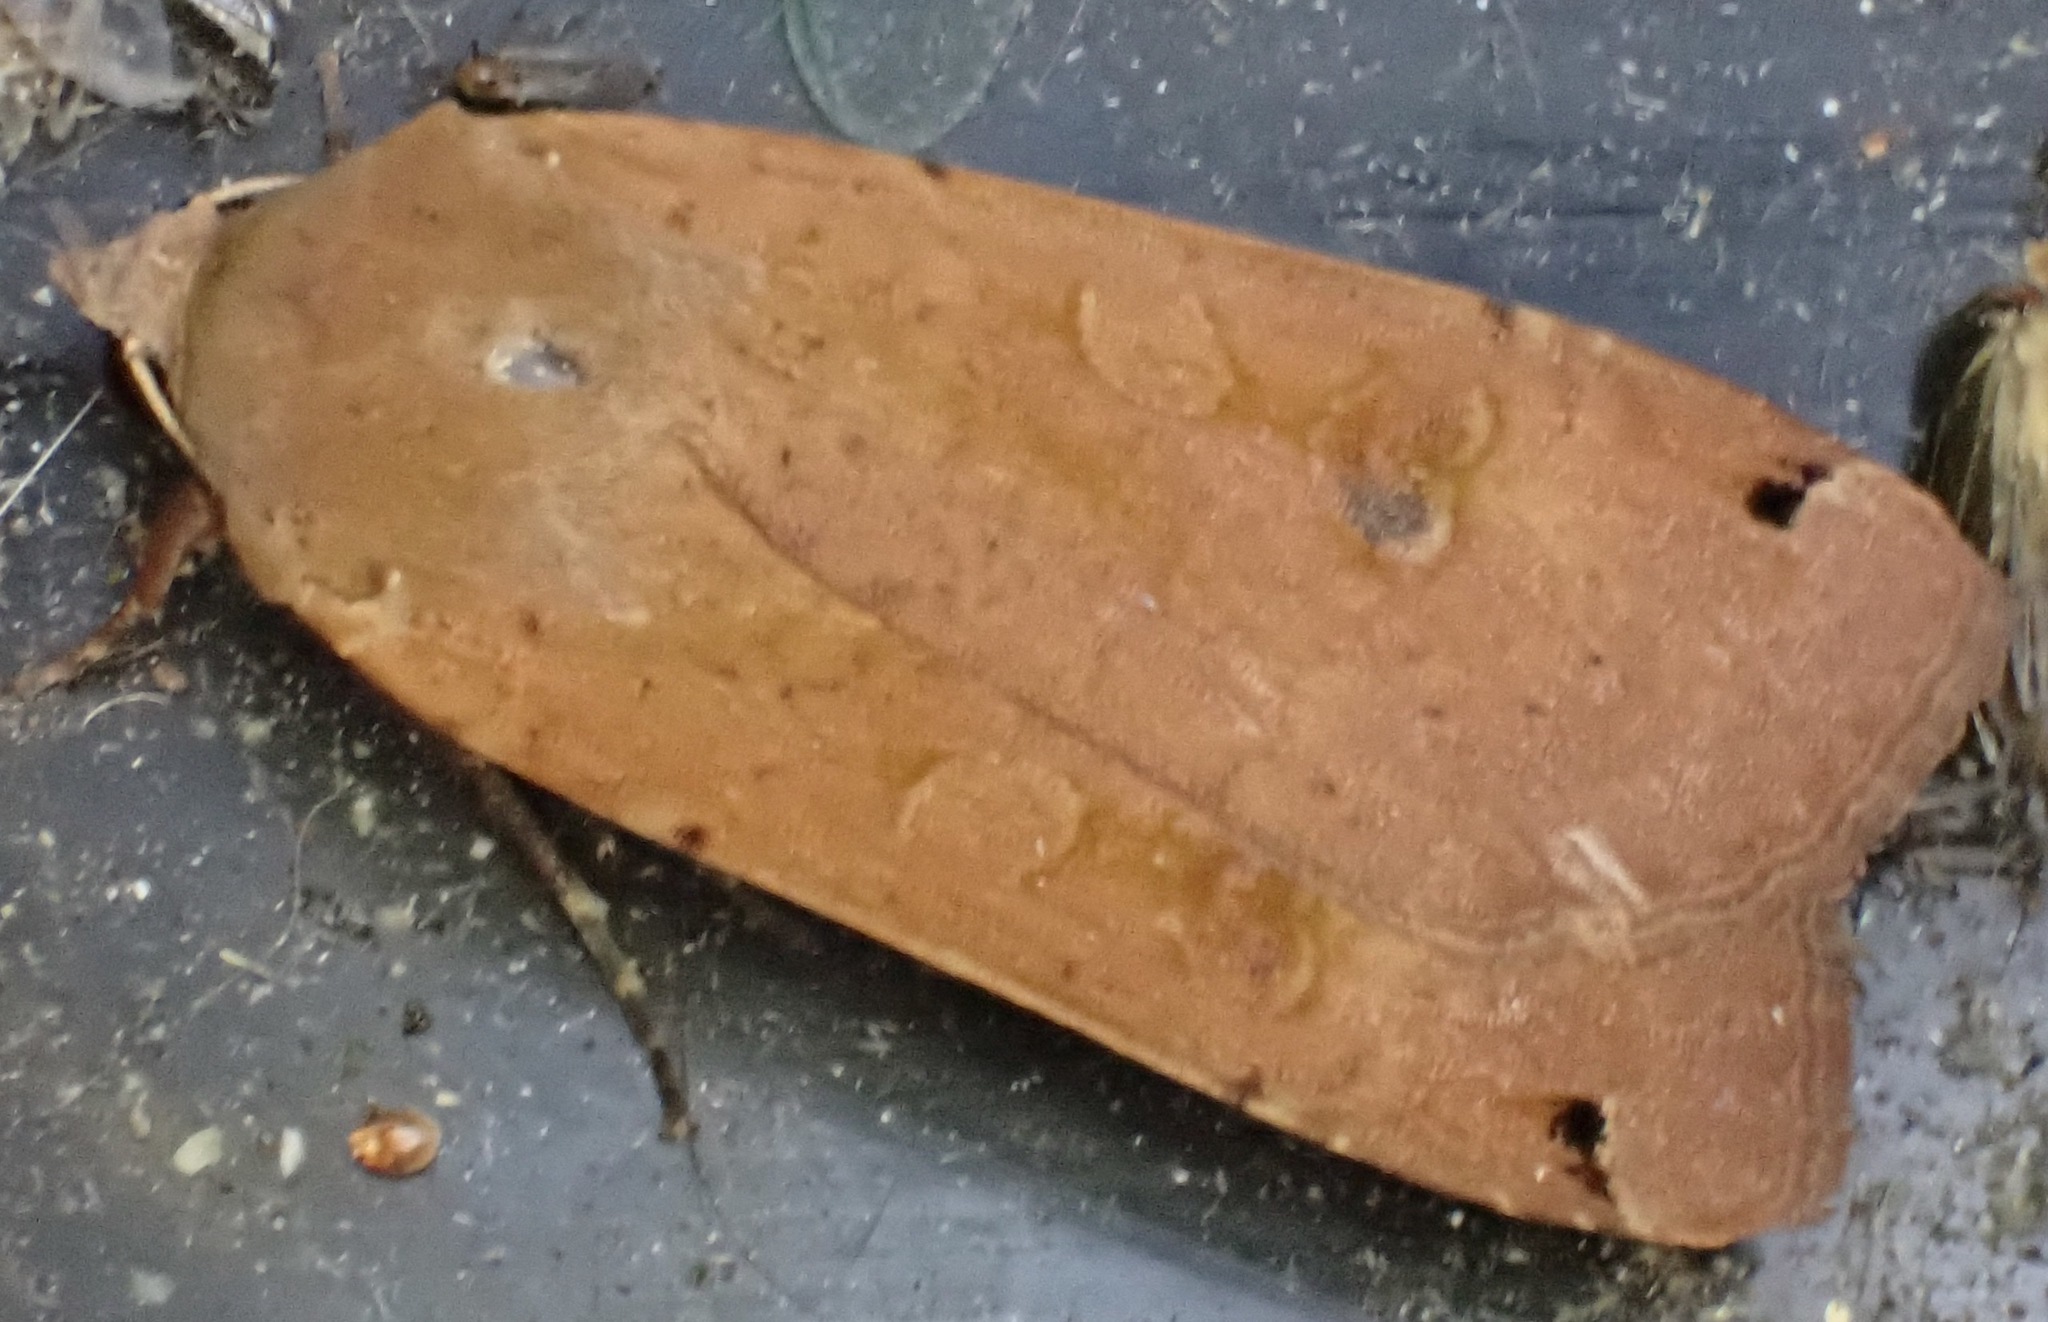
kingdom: Animalia
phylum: Arthropoda
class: Insecta
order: Lepidoptera
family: Noctuidae
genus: Noctua
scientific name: Noctua pronuba
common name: Large yellow underwing
